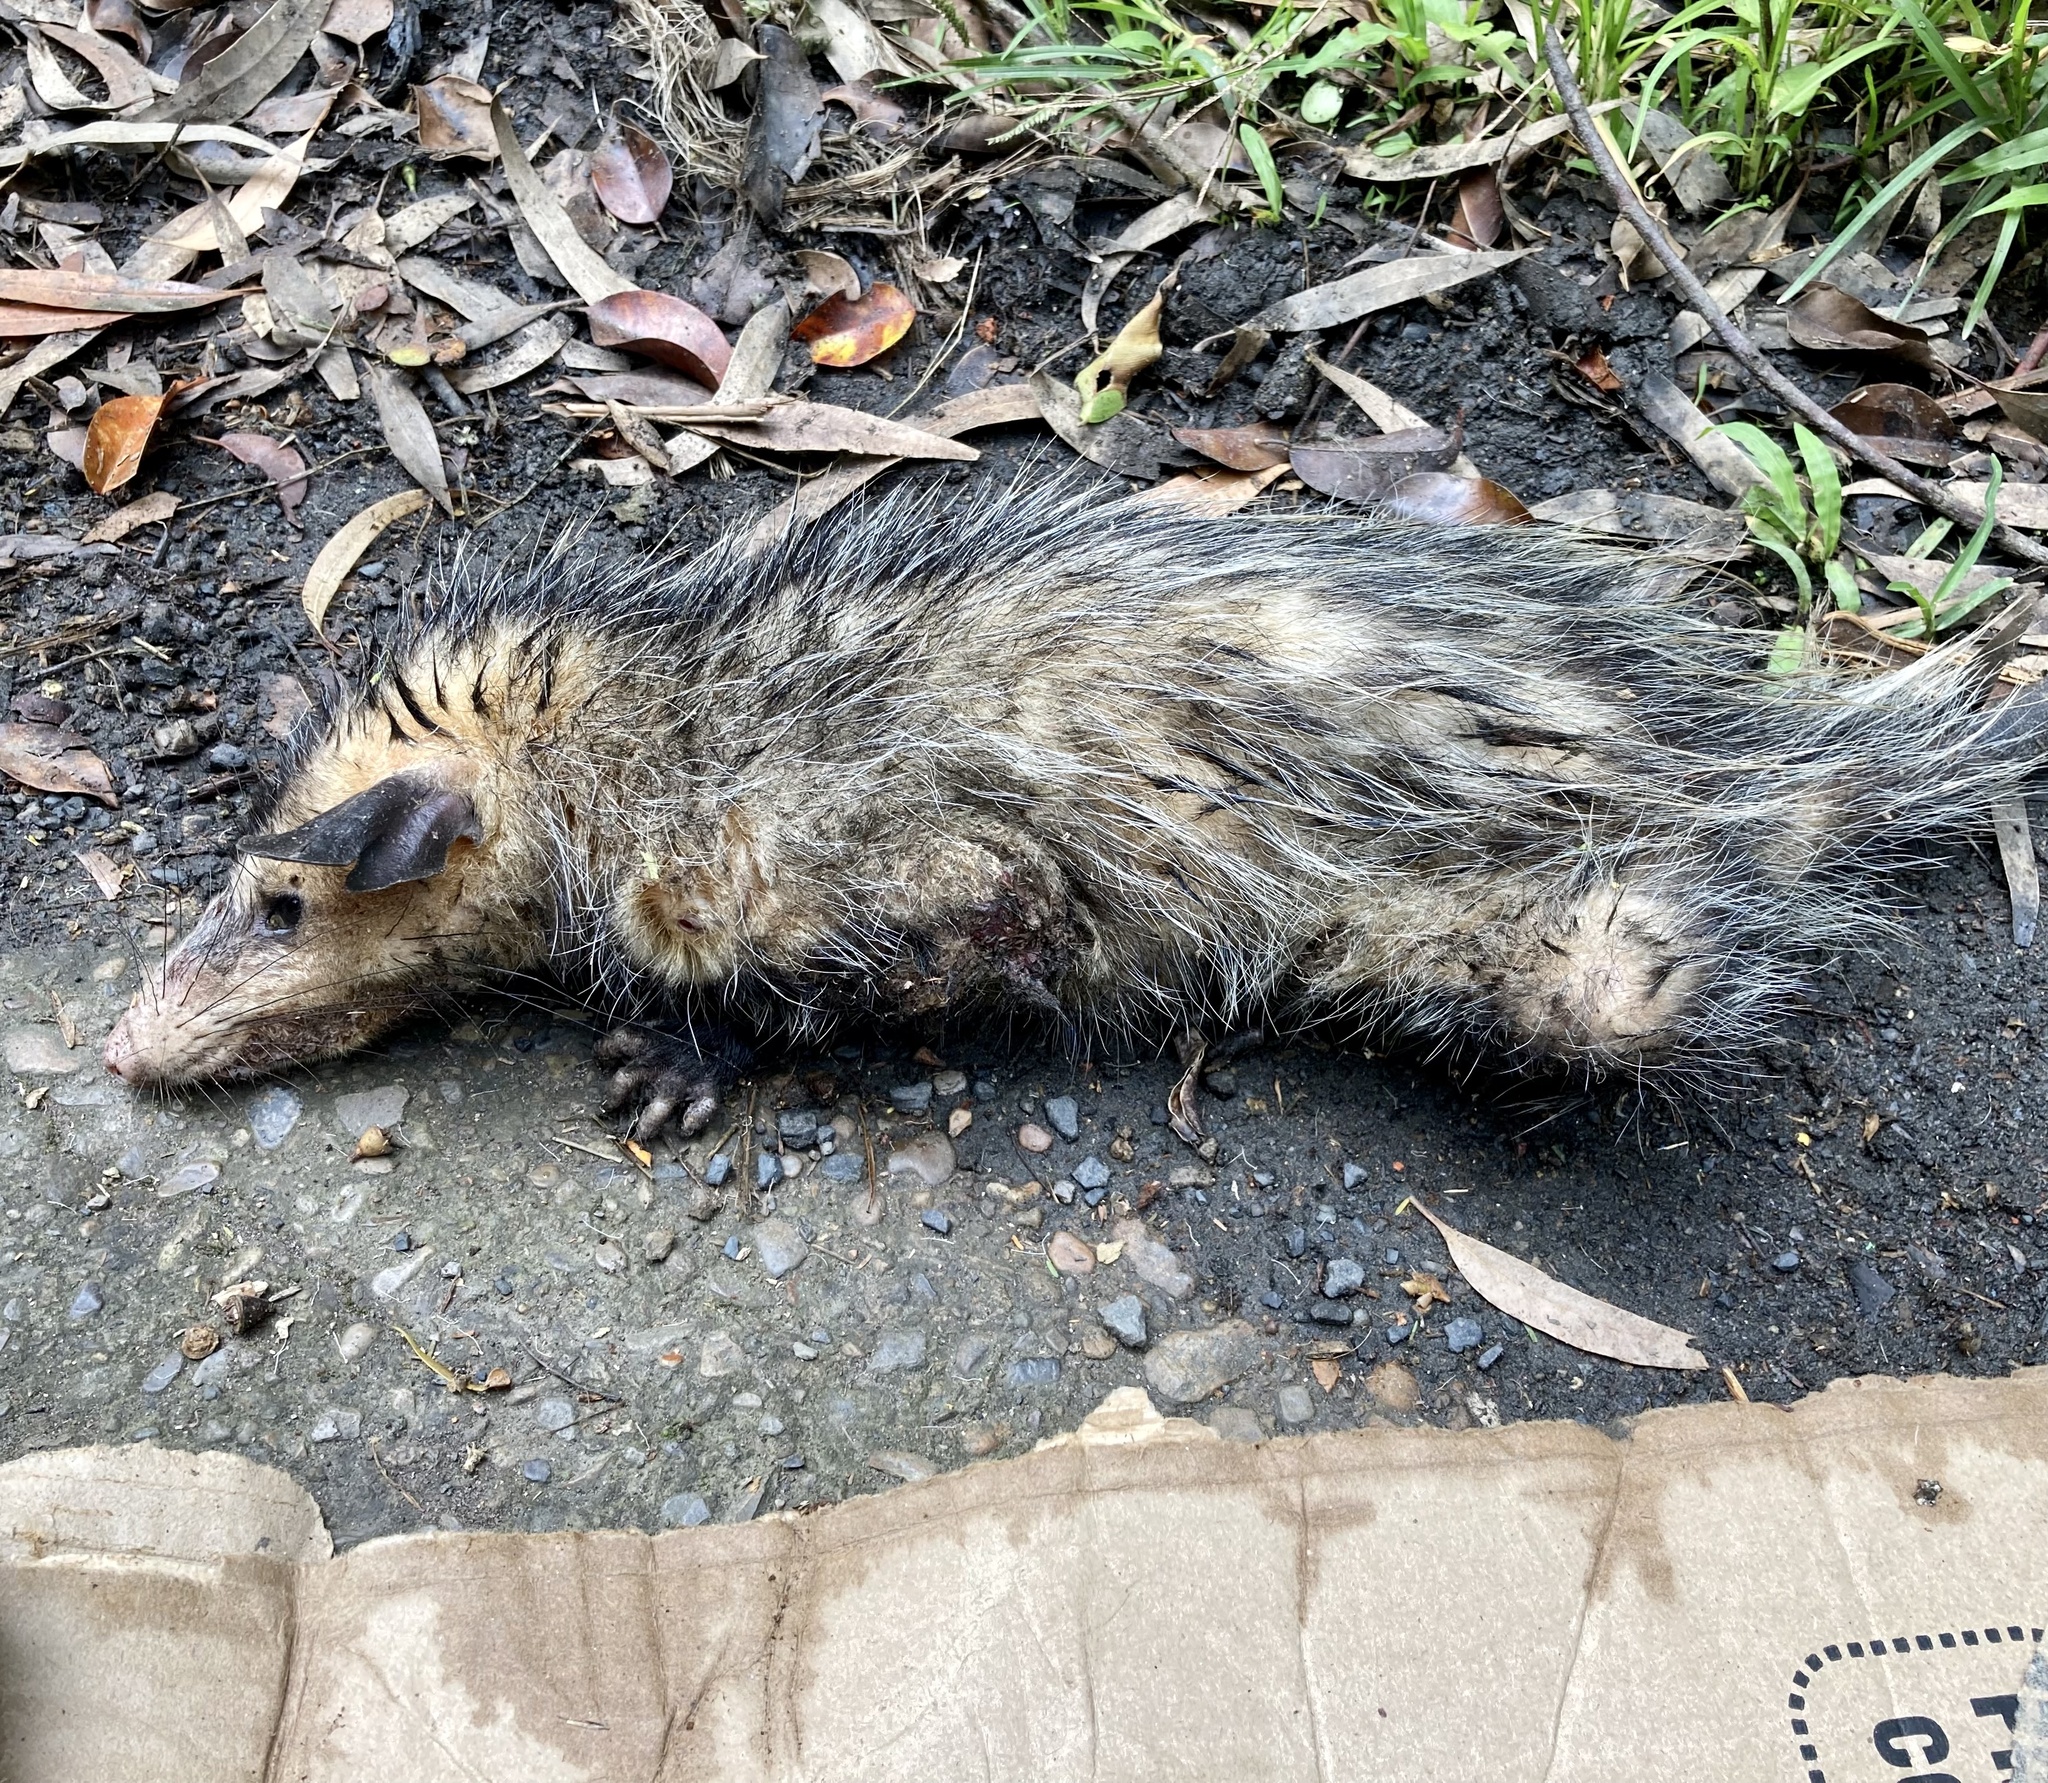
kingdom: Animalia
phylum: Chordata
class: Mammalia
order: Didelphimorphia
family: Didelphidae
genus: Didelphis
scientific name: Didelphis marsupialis
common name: Common opossum
